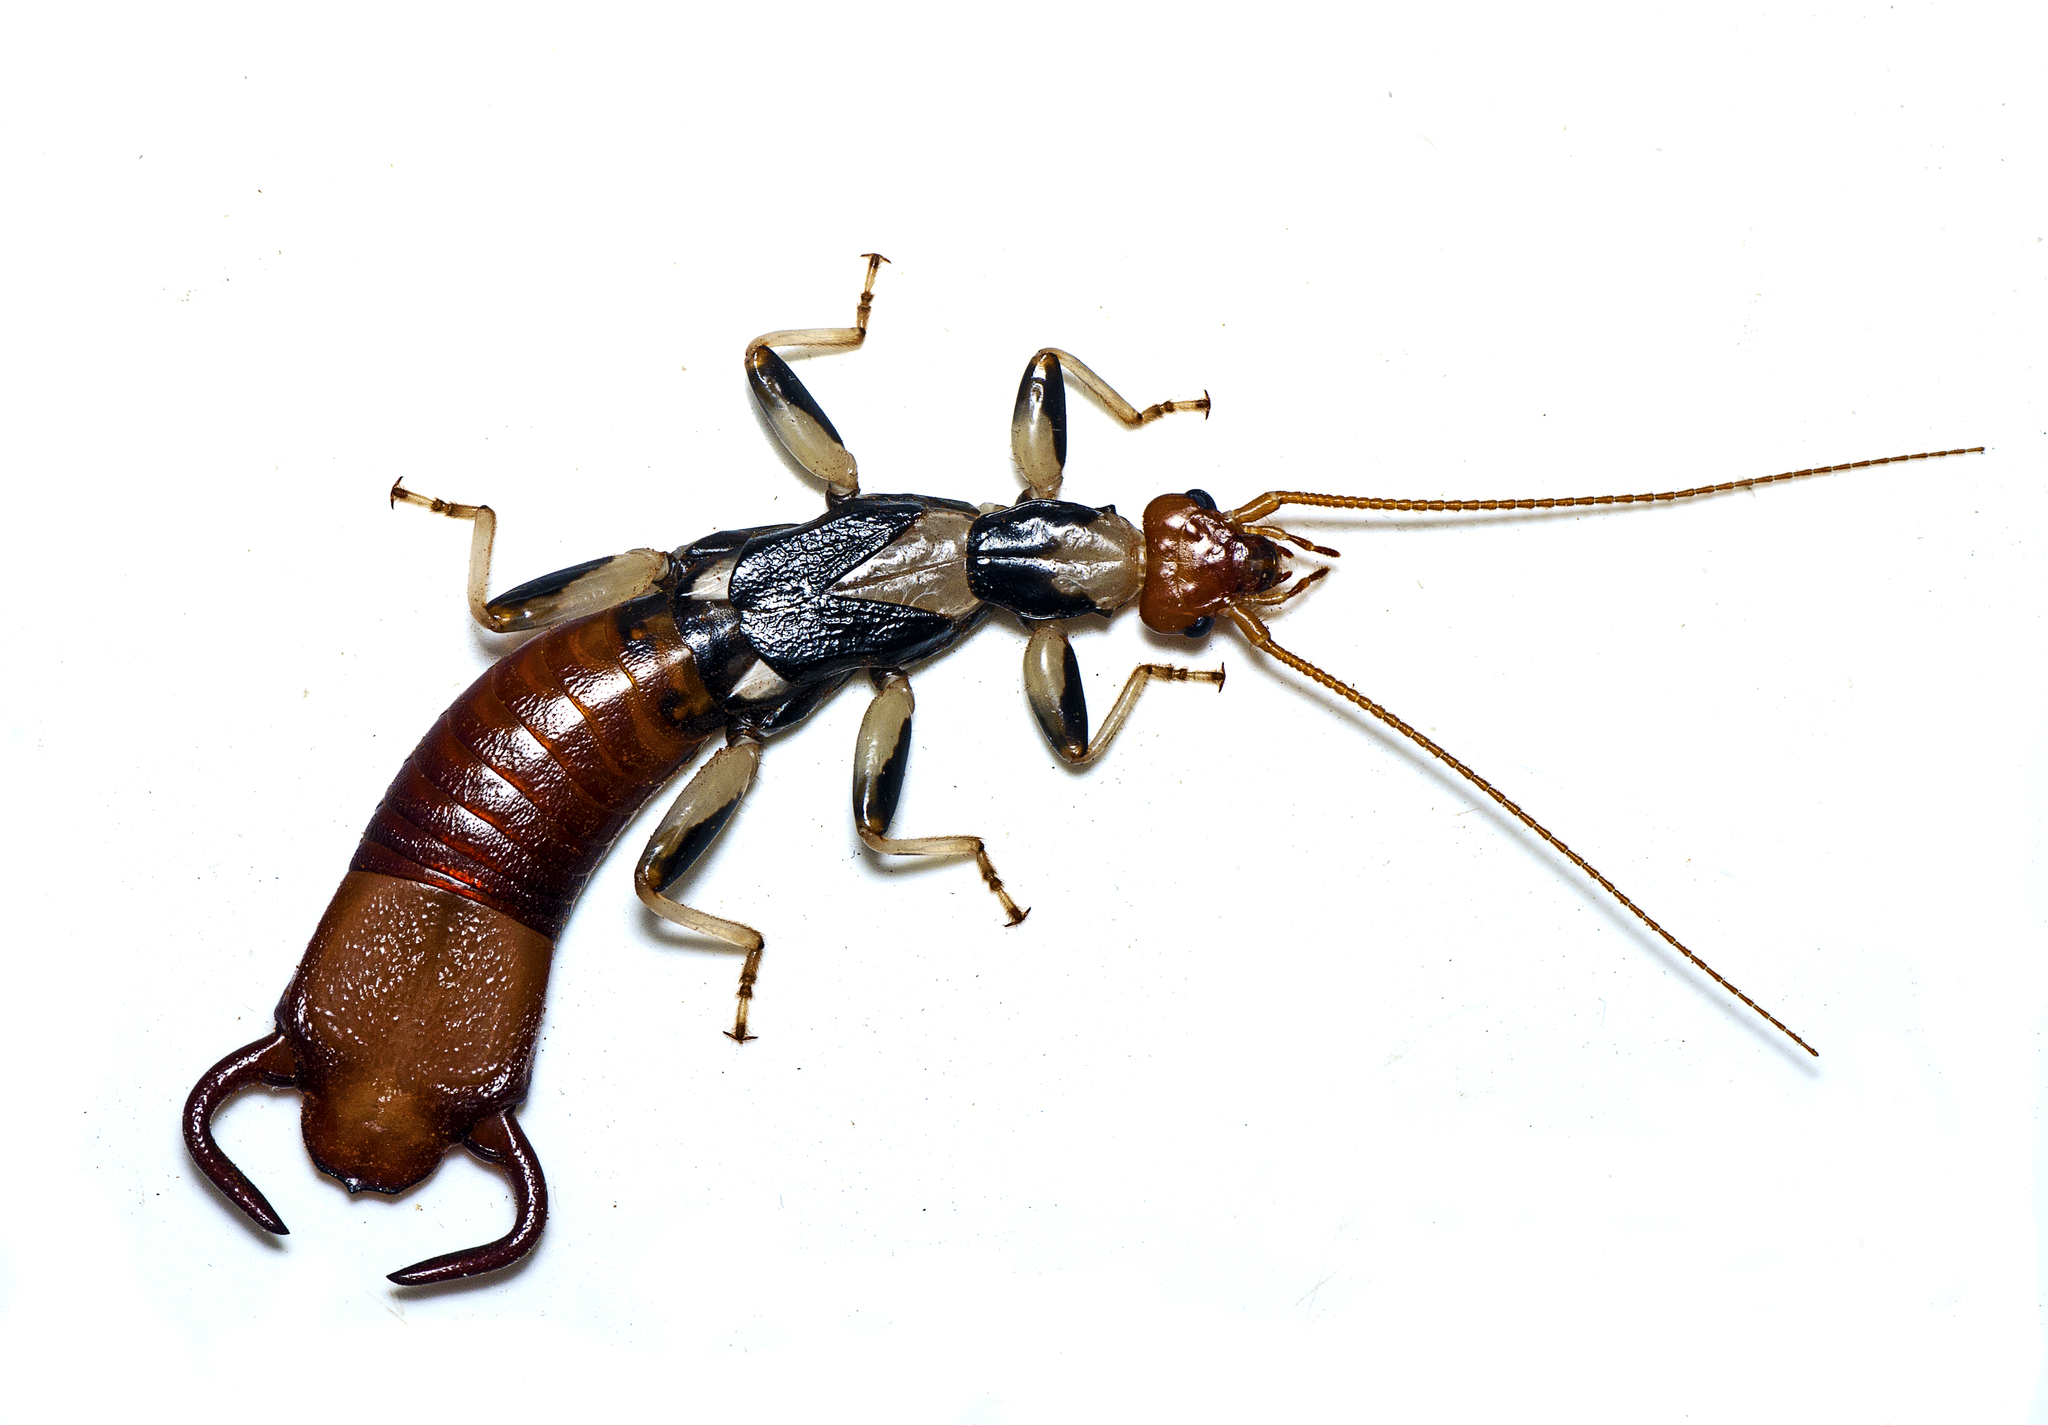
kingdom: Animalia
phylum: Arthropoda
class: Insecta
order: Dermaptera
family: Apachyidae
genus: Apachyus
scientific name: Apachyus peterseni
